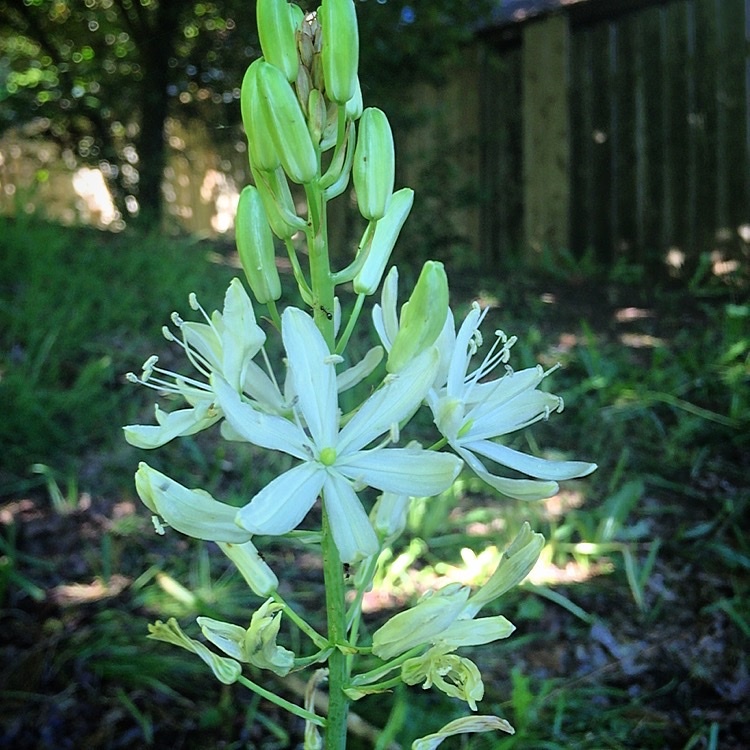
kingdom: Plantae
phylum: Tracheophyta
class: Liliopsida
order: Asparagales
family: Asparagaceae
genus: Camassia
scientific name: Camassia leichtlinii
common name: Leichtlin's camas
